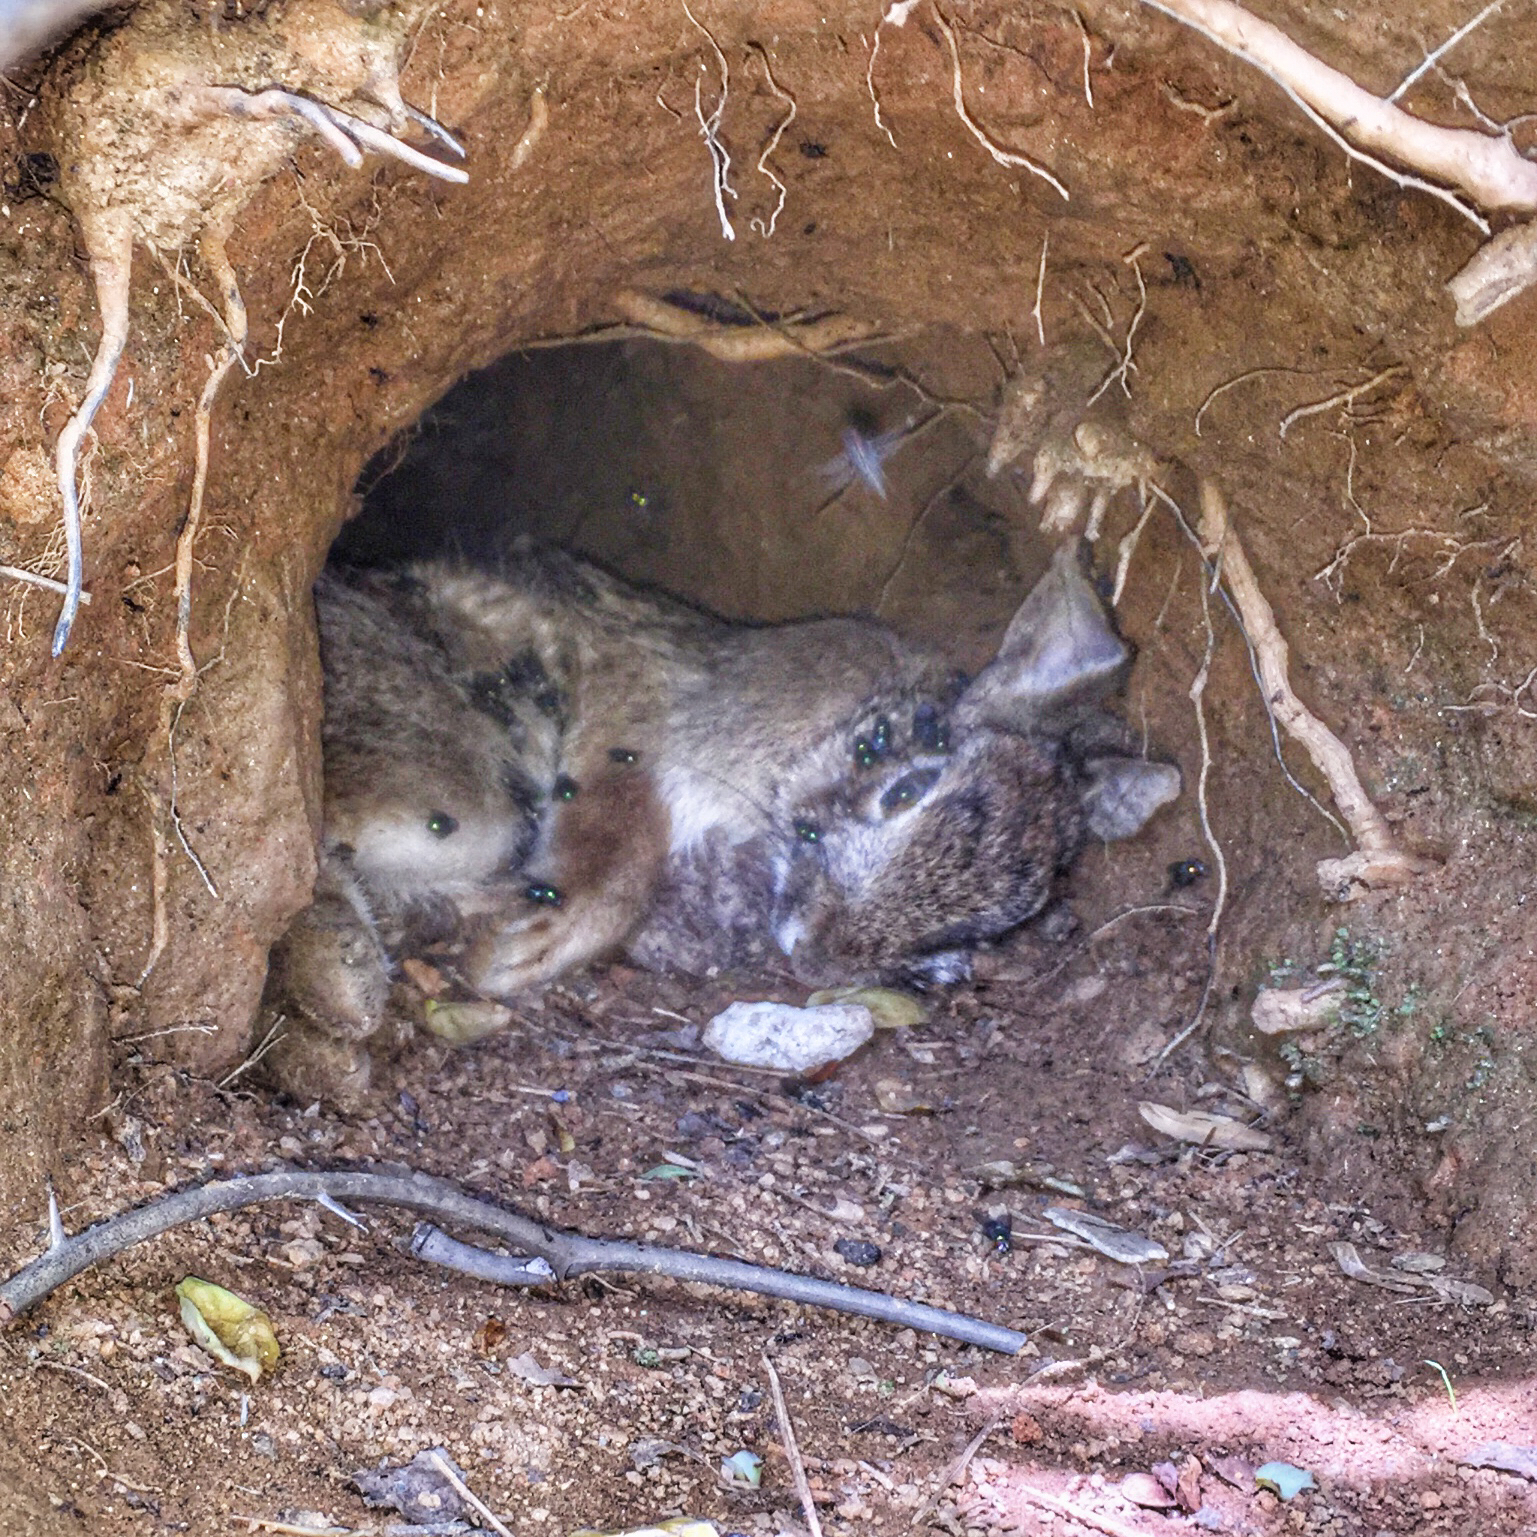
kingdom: Animalia
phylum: Chordata
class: Mammalia
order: Lagomorpha
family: Leporidae
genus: Sylvilagus
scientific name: Sylvilagus floridanus
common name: Eastern cottontail
